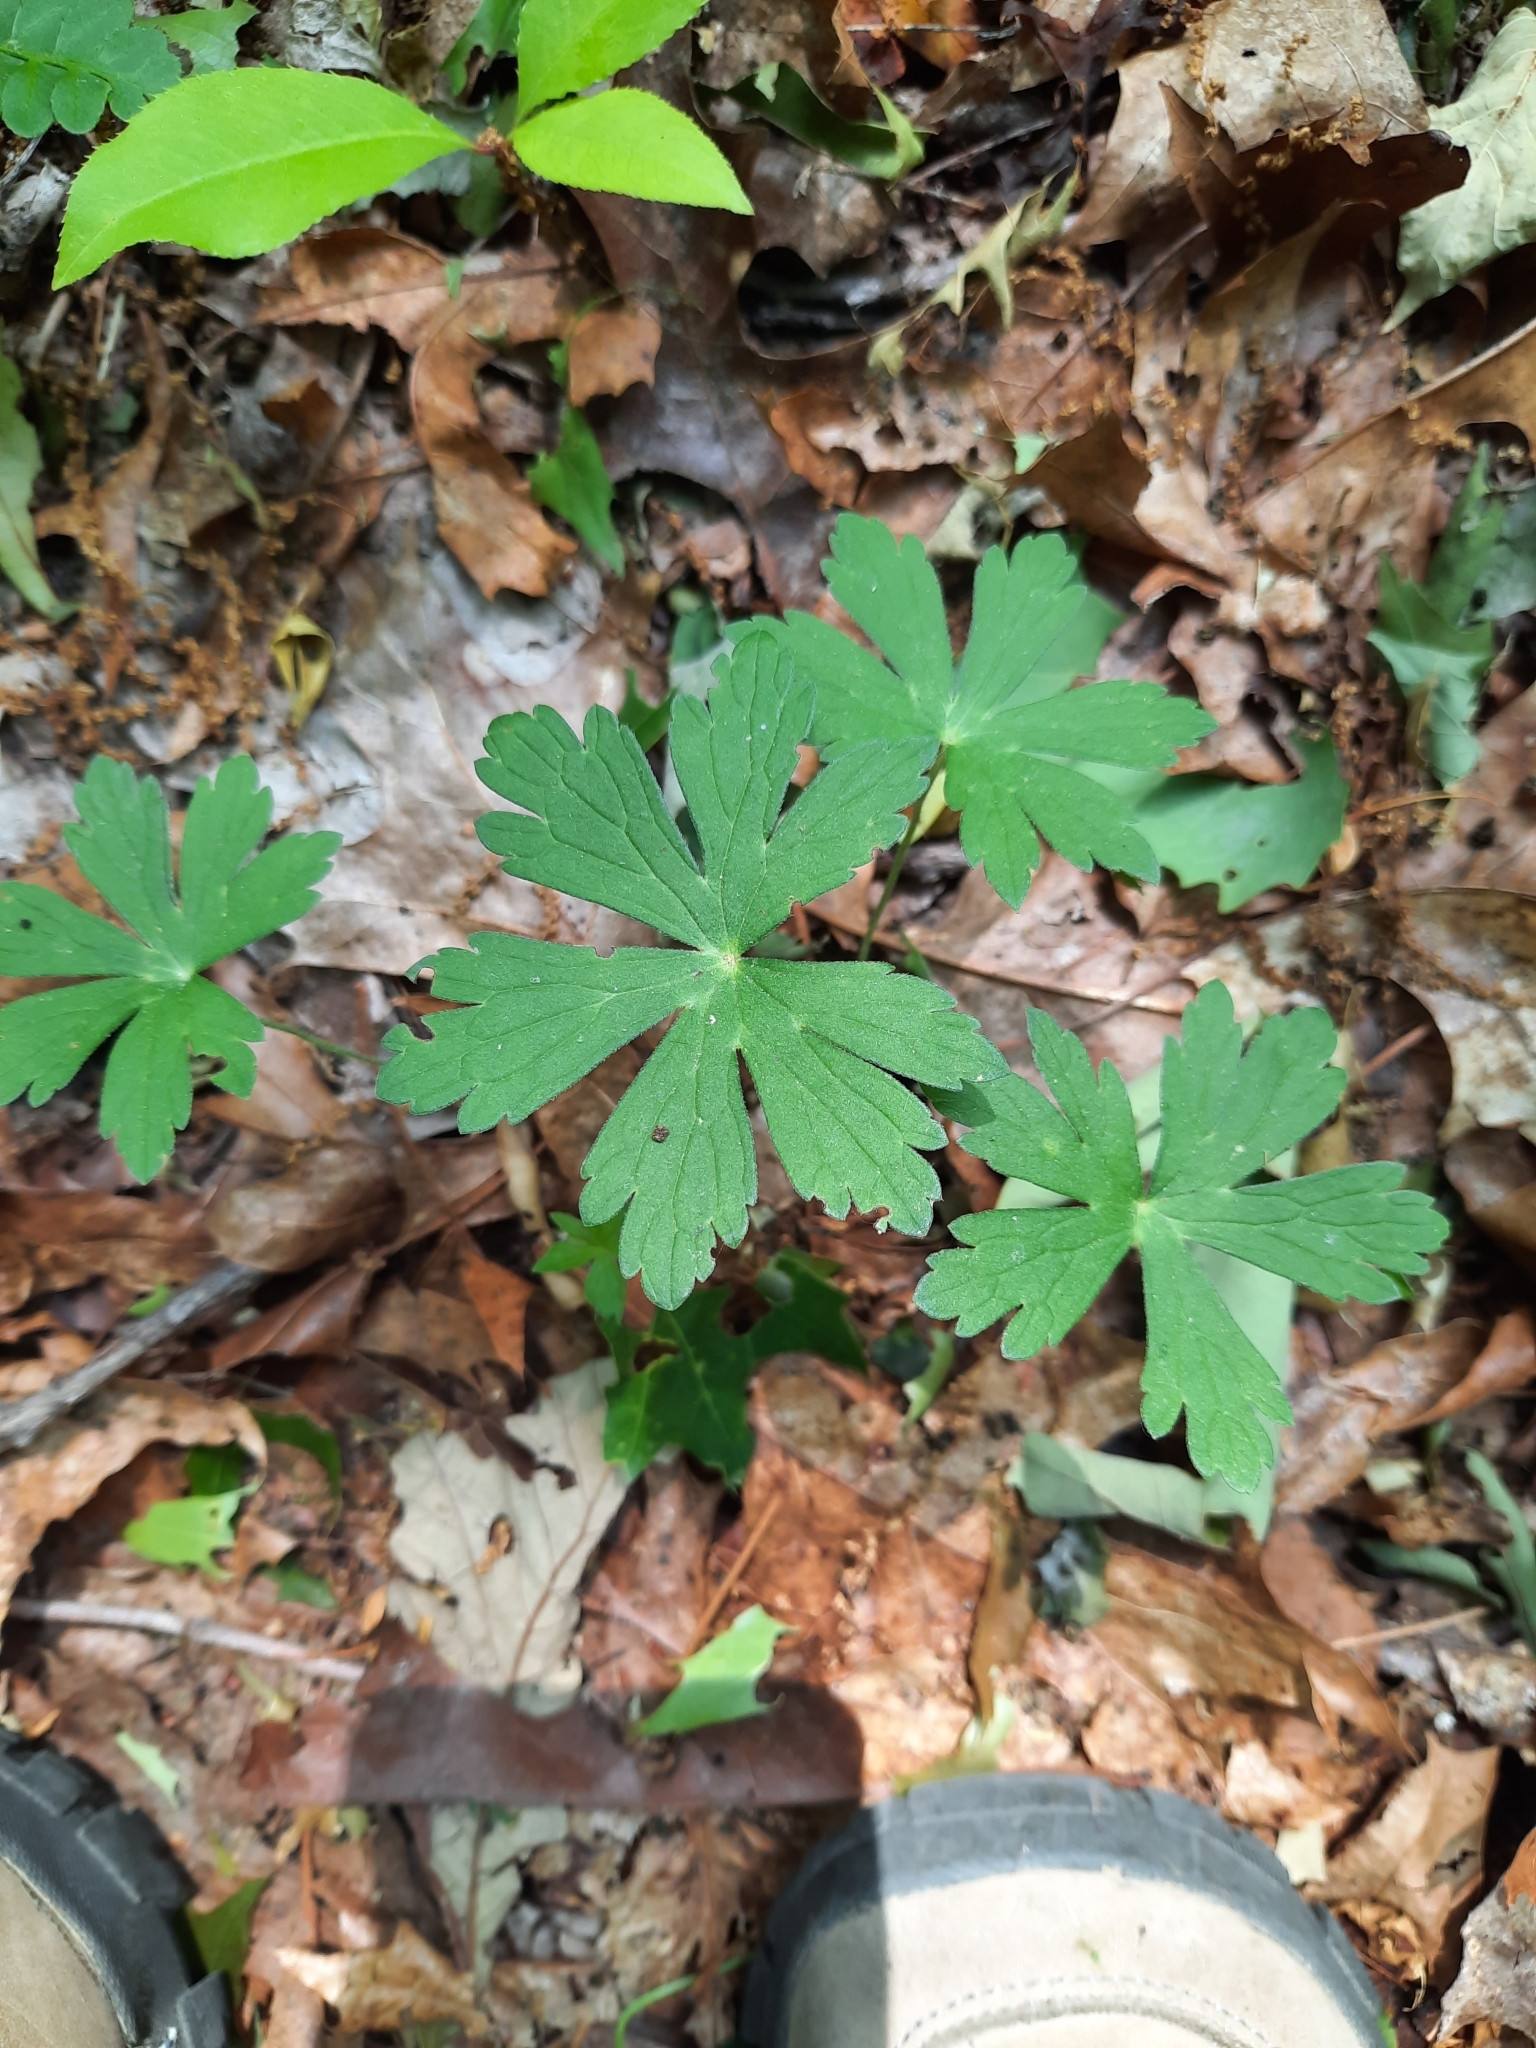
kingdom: Plantae
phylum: Tracheophyta
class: Magnoliopsida
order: Geraniales
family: Geraniaceae
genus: Geranium
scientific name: Geranium maculatum
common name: Spotted geranium
